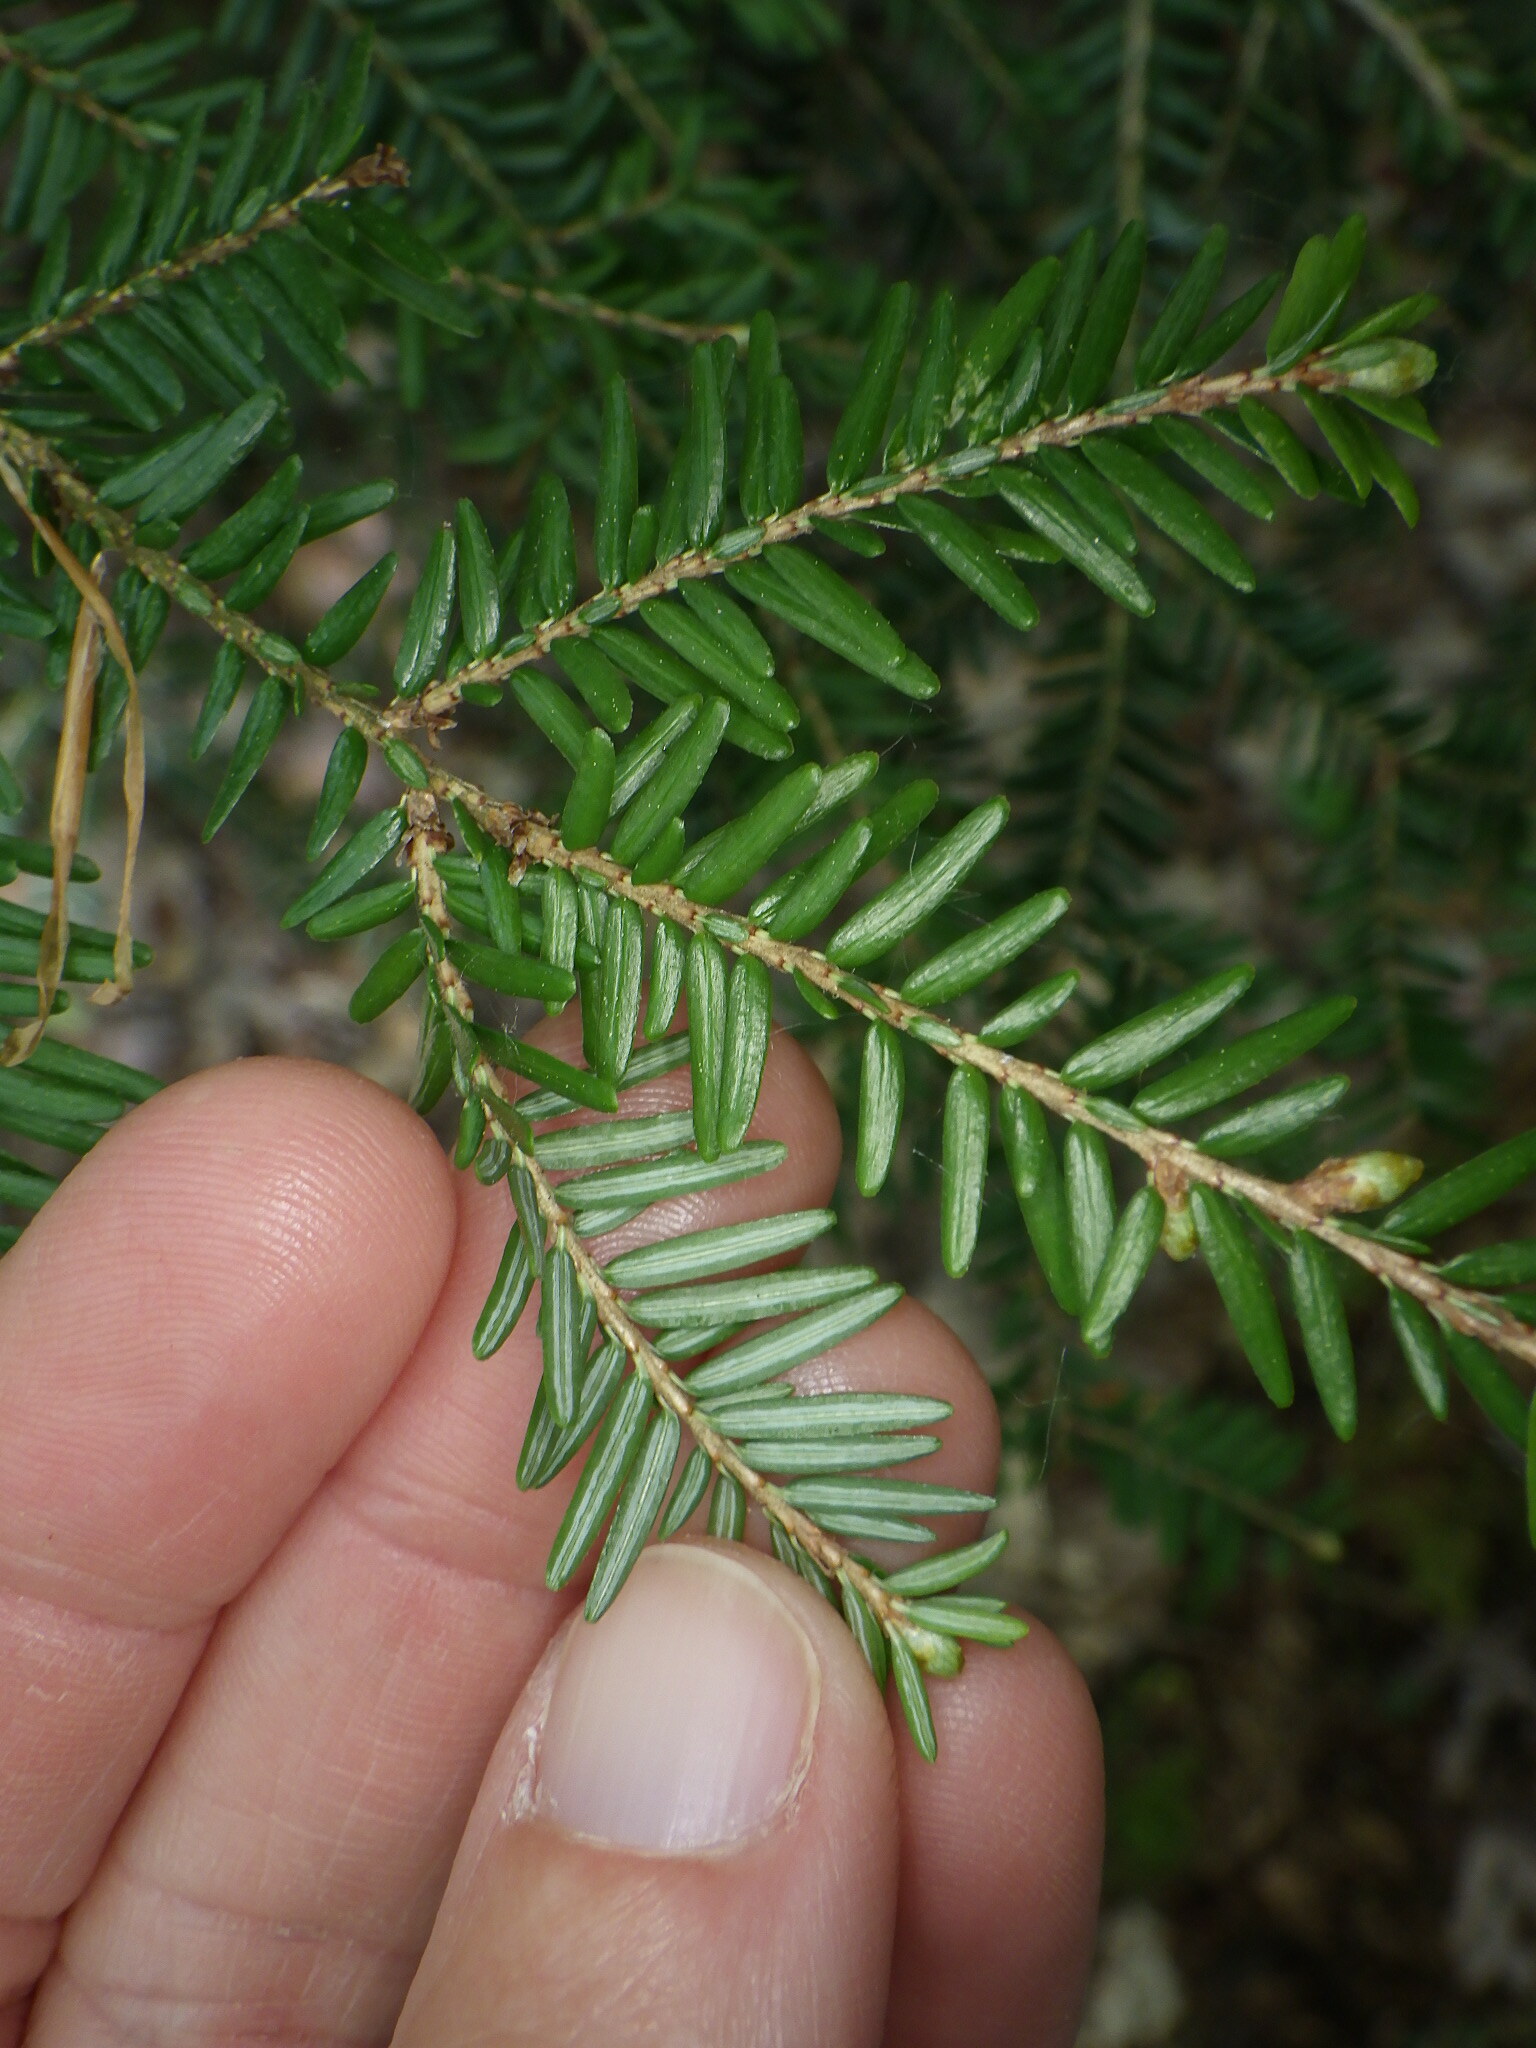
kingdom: Plantae
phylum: Tracheophyta
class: Pinopsida
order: Pinales
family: Pinaceae
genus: Tsuga
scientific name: Tsuga canadensis
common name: Eastern hemlock
